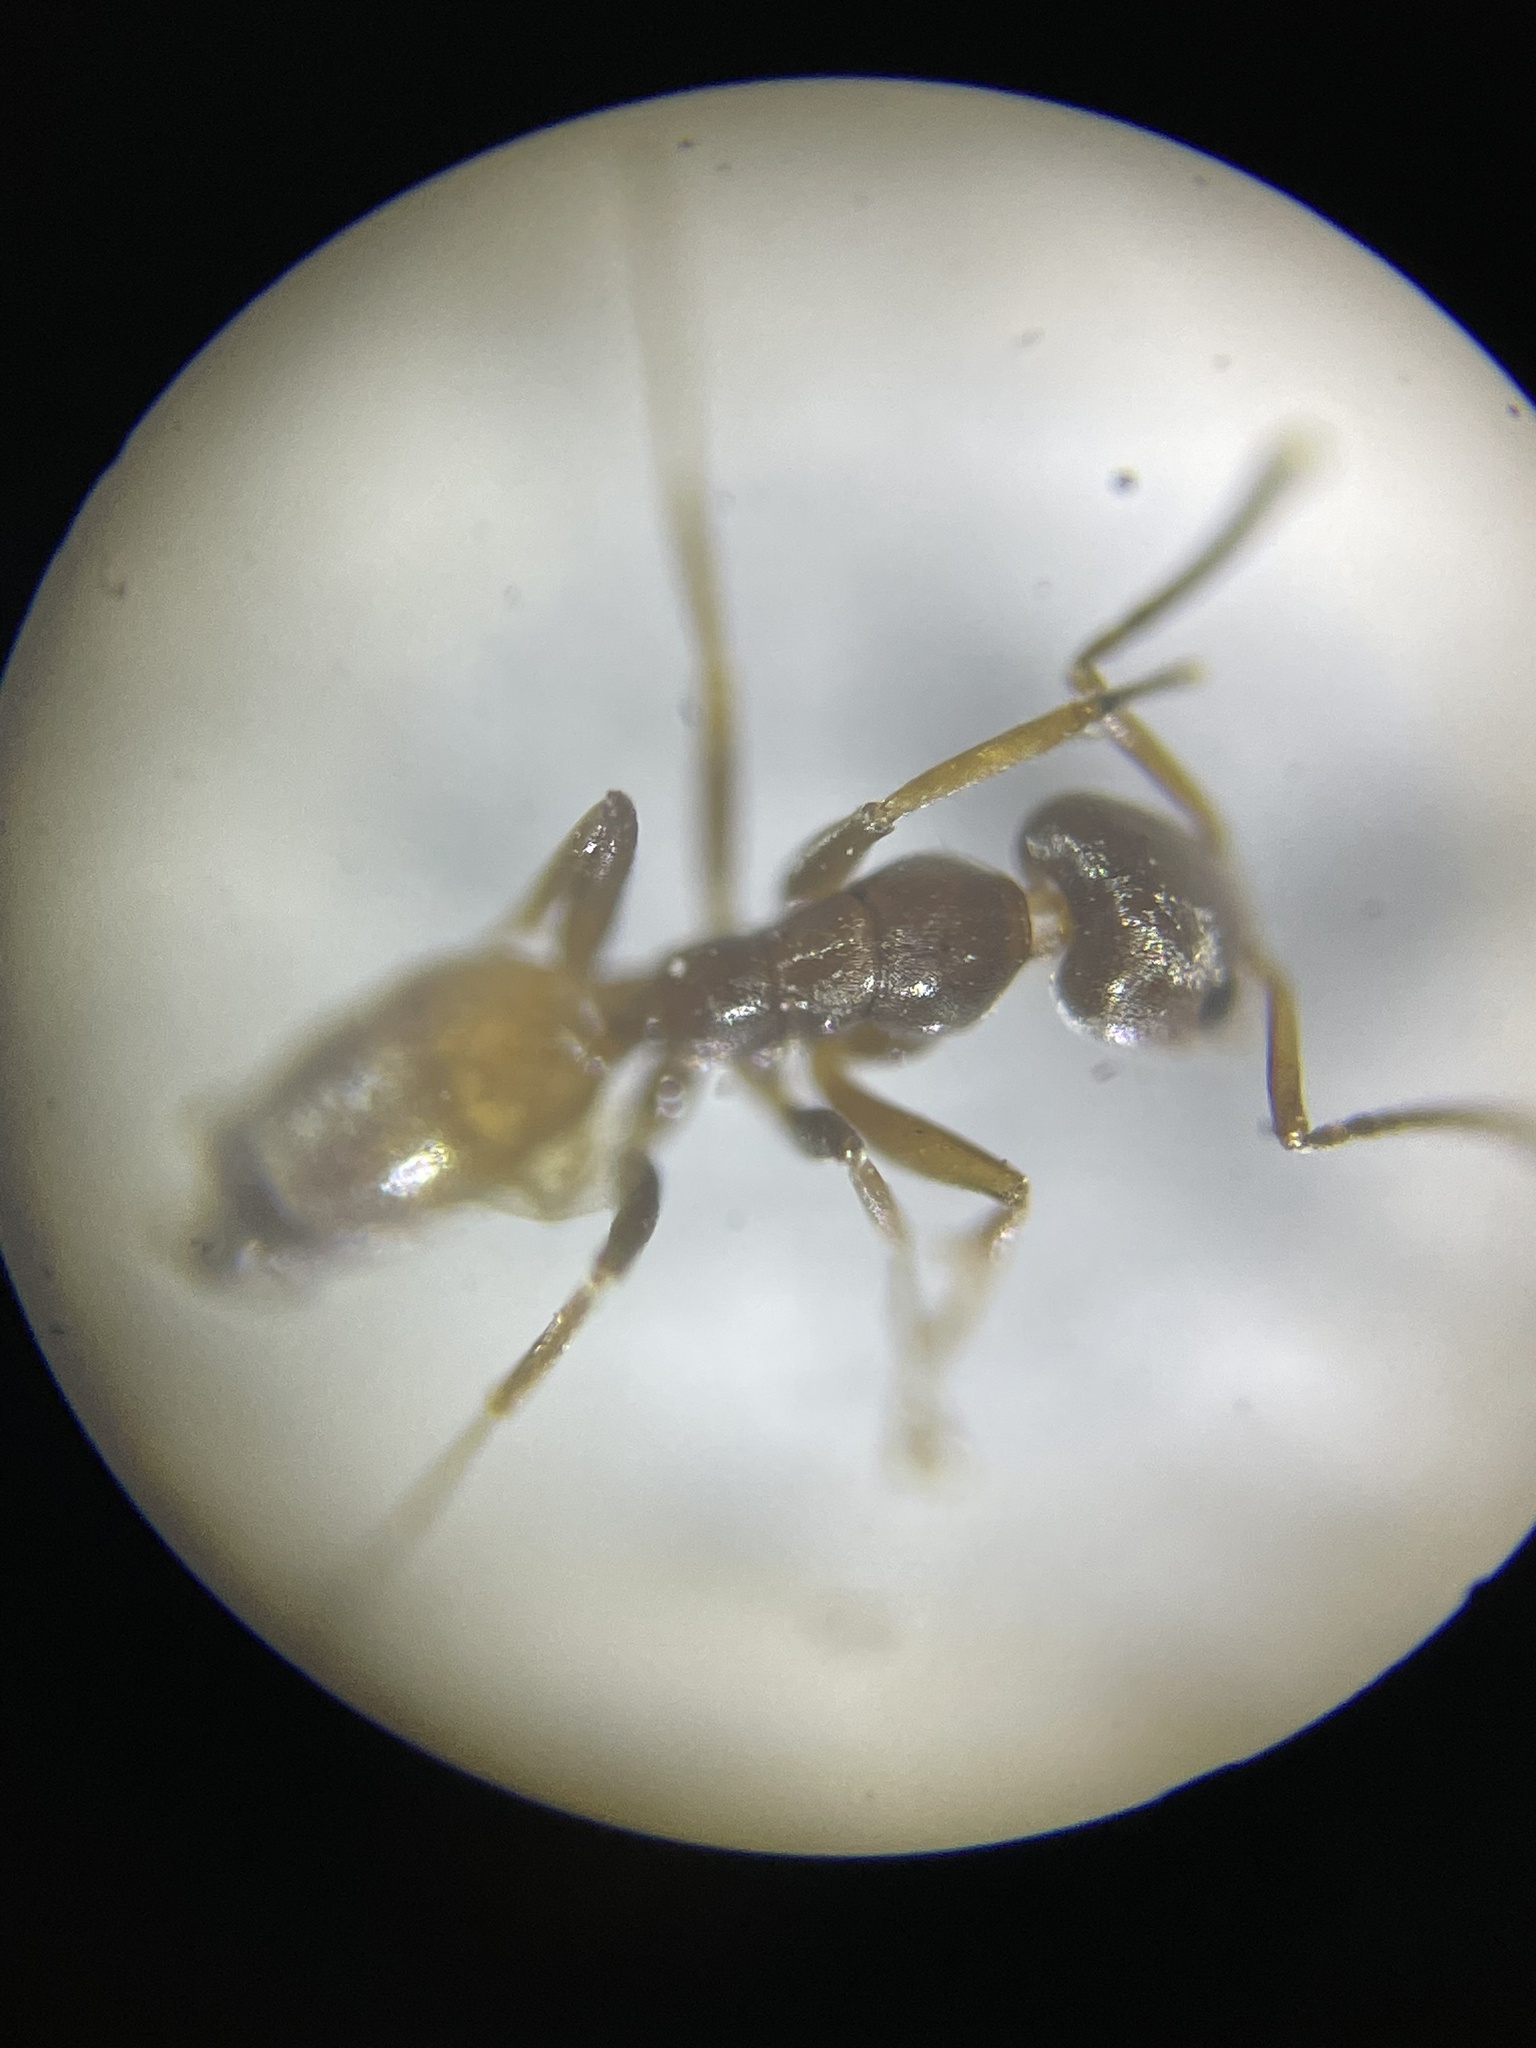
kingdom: Animalia
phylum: Arthropoda
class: Insecta
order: Hymenoptera
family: Formicidae
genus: Forelius
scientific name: Forelius pruinosus
